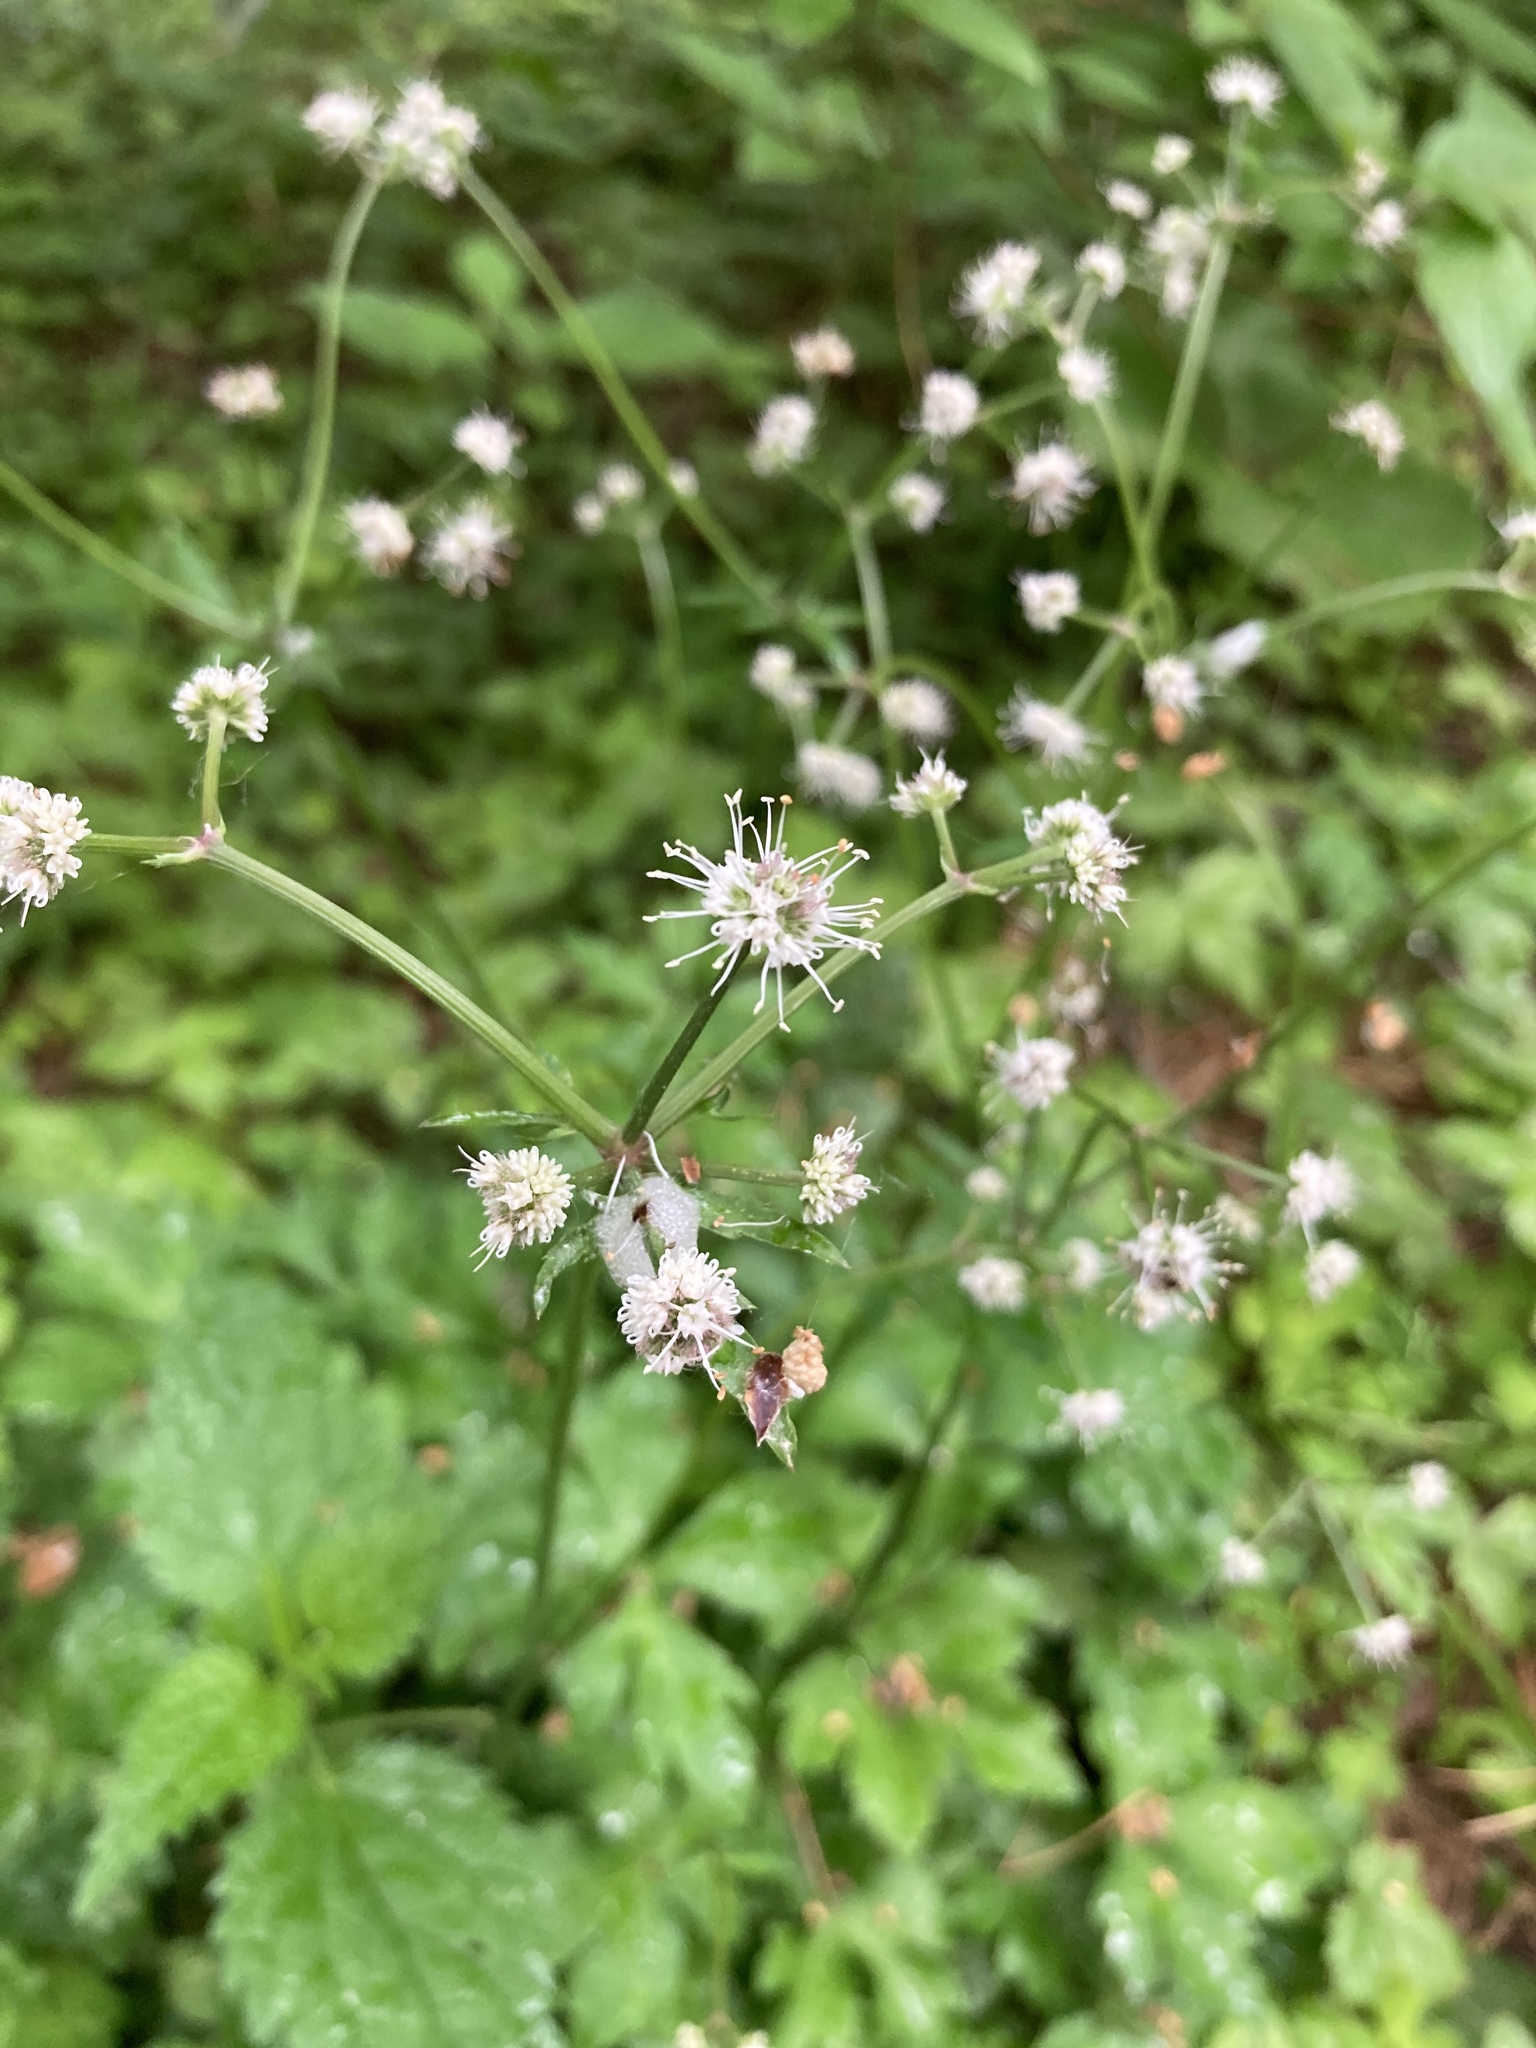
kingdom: Plantae
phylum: Tracheophyta
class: Magnoliopsida
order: Apiales
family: Apiaceae
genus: Sanicula
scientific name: Sanicula europaea
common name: Sanicle
